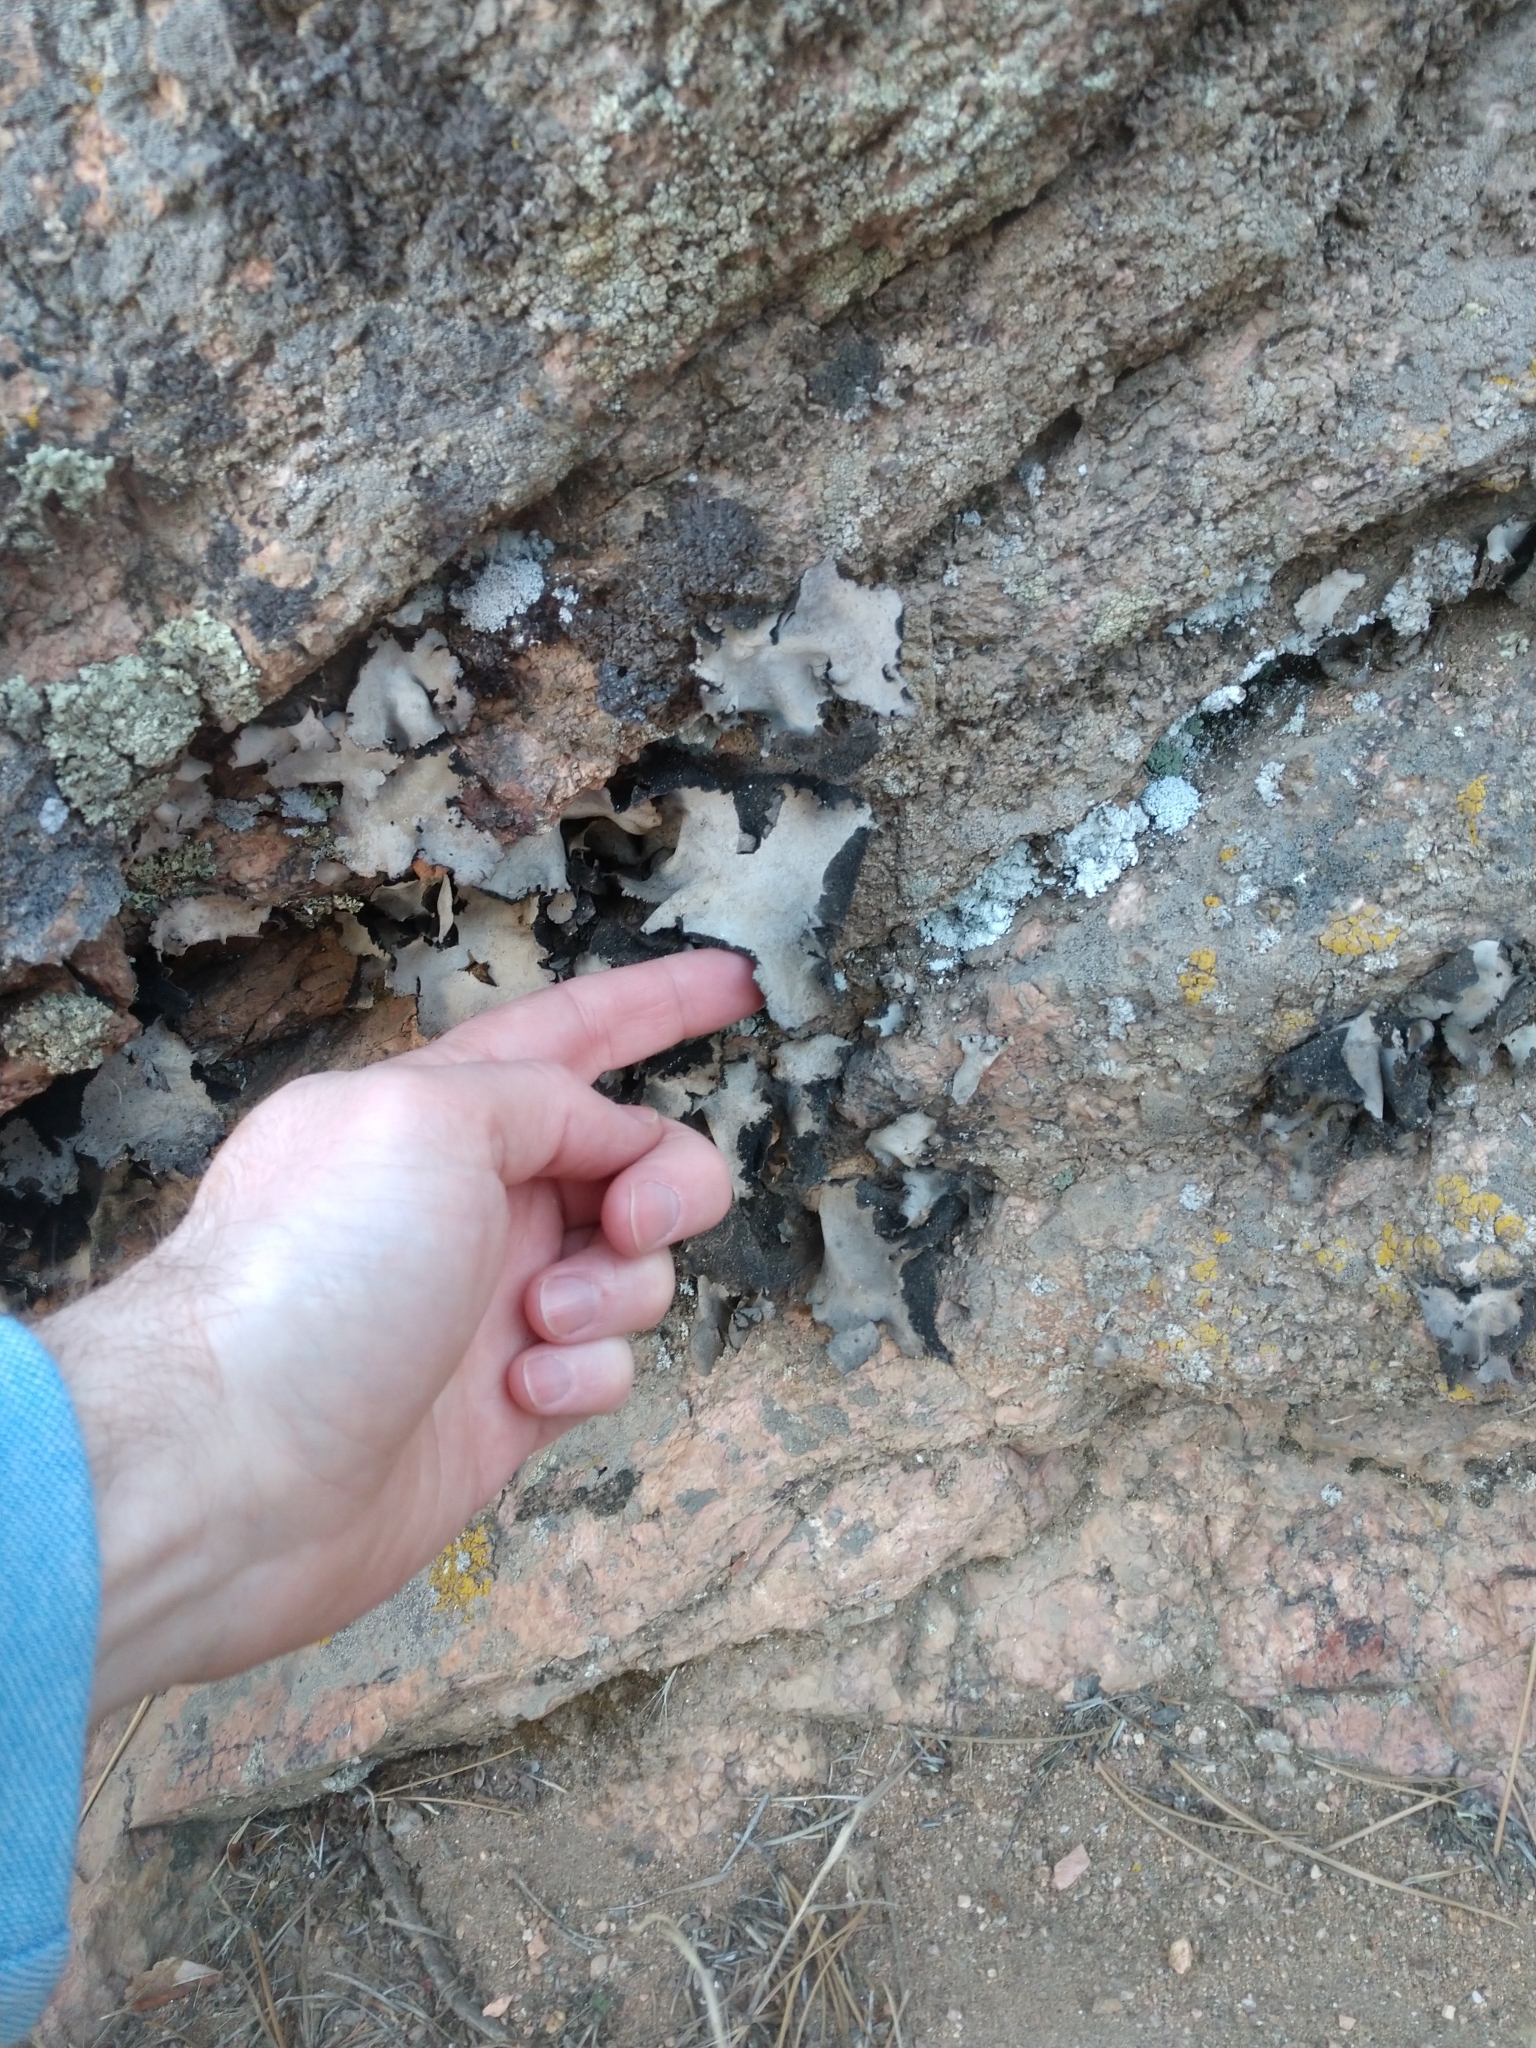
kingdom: Fungi
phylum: Ascomycota
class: Lecanoromycetes
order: Umbilicariales
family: Umbilicariaceae
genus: Umbilicaria
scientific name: Umbilicaria americana
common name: Frosted rock tripe
